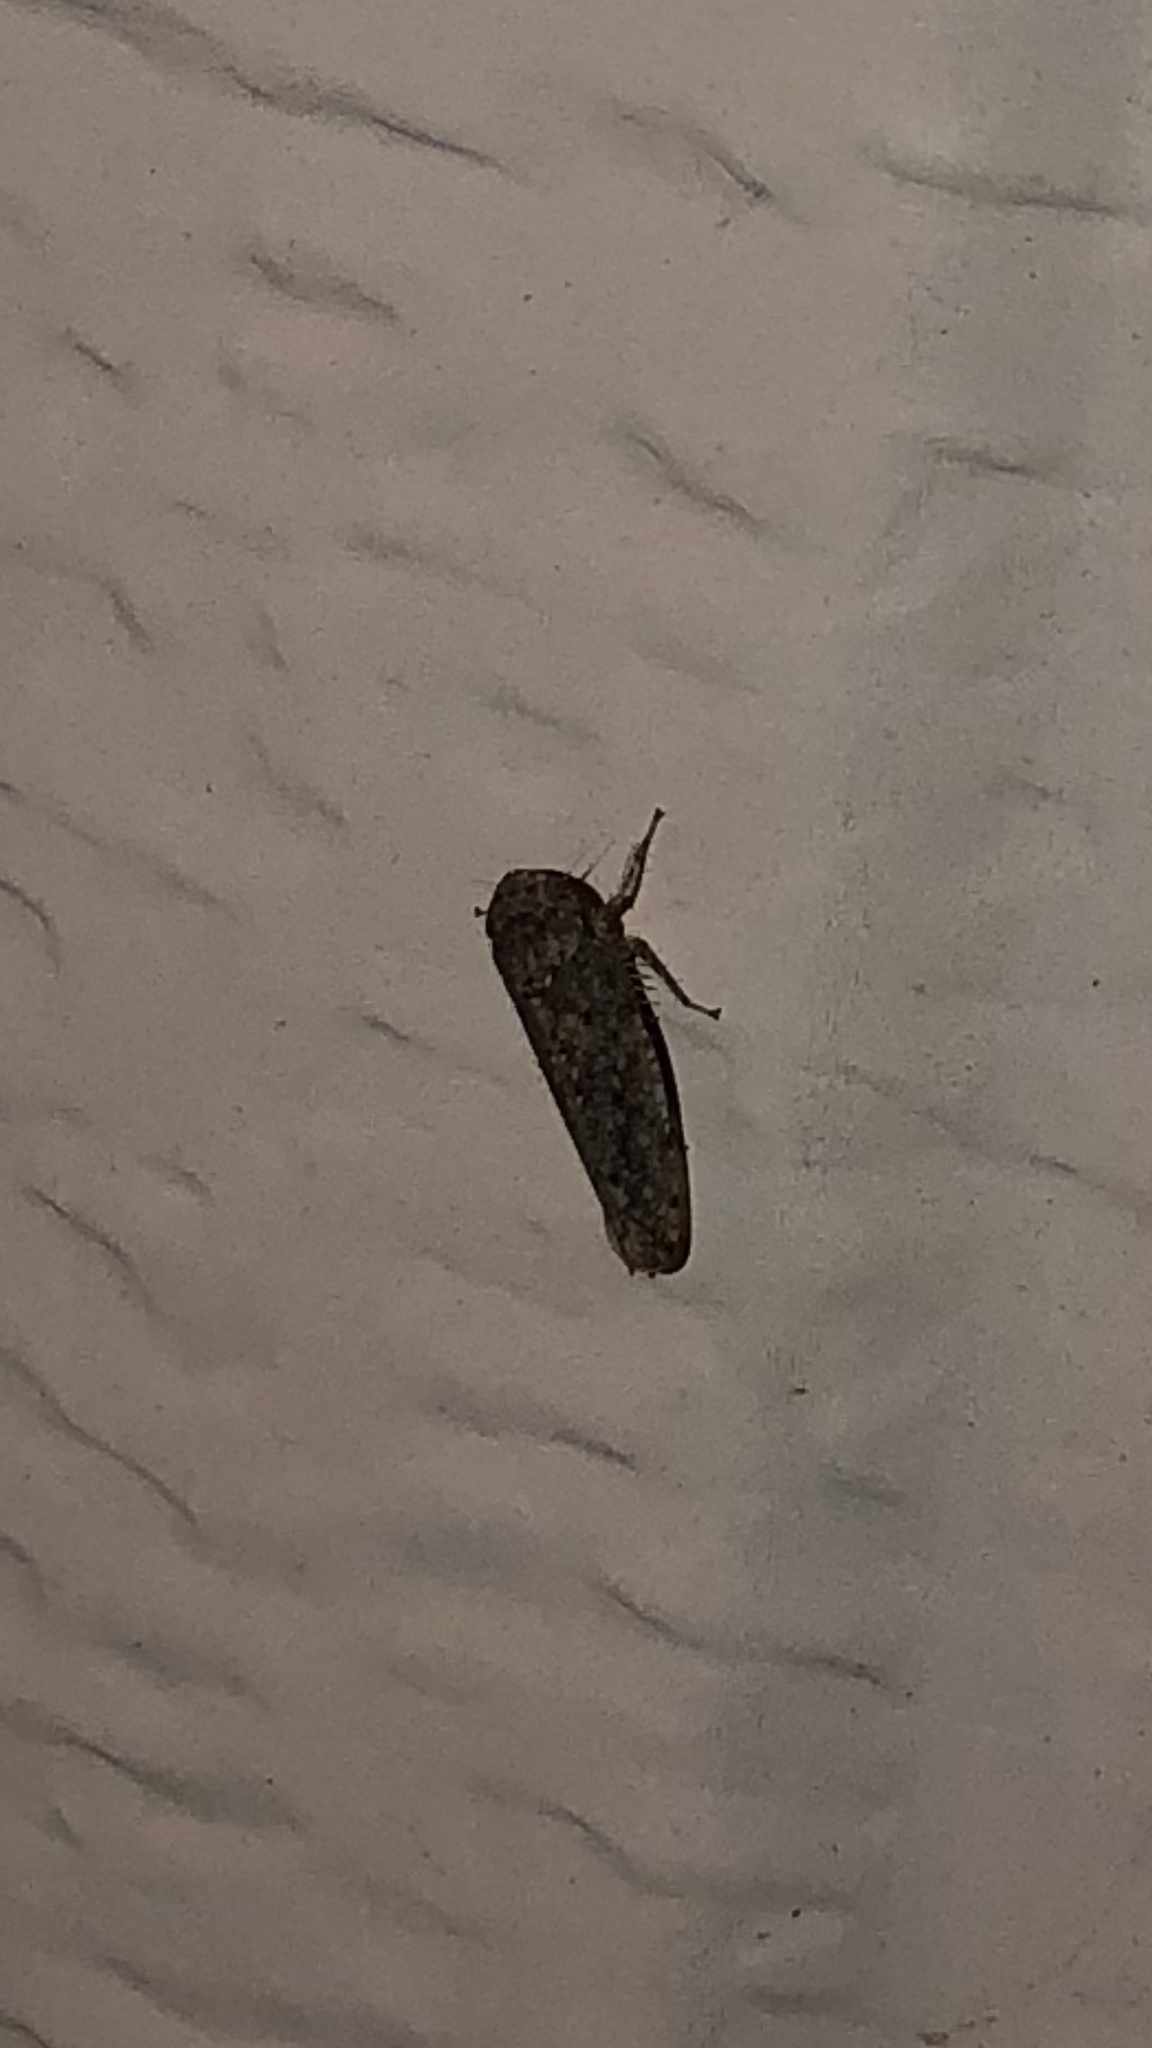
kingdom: Animalia
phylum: Arthropoda
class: Insecta
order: Hemiptera
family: Cicadellidae
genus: Paraphlepsius
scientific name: Paraphlepsius
